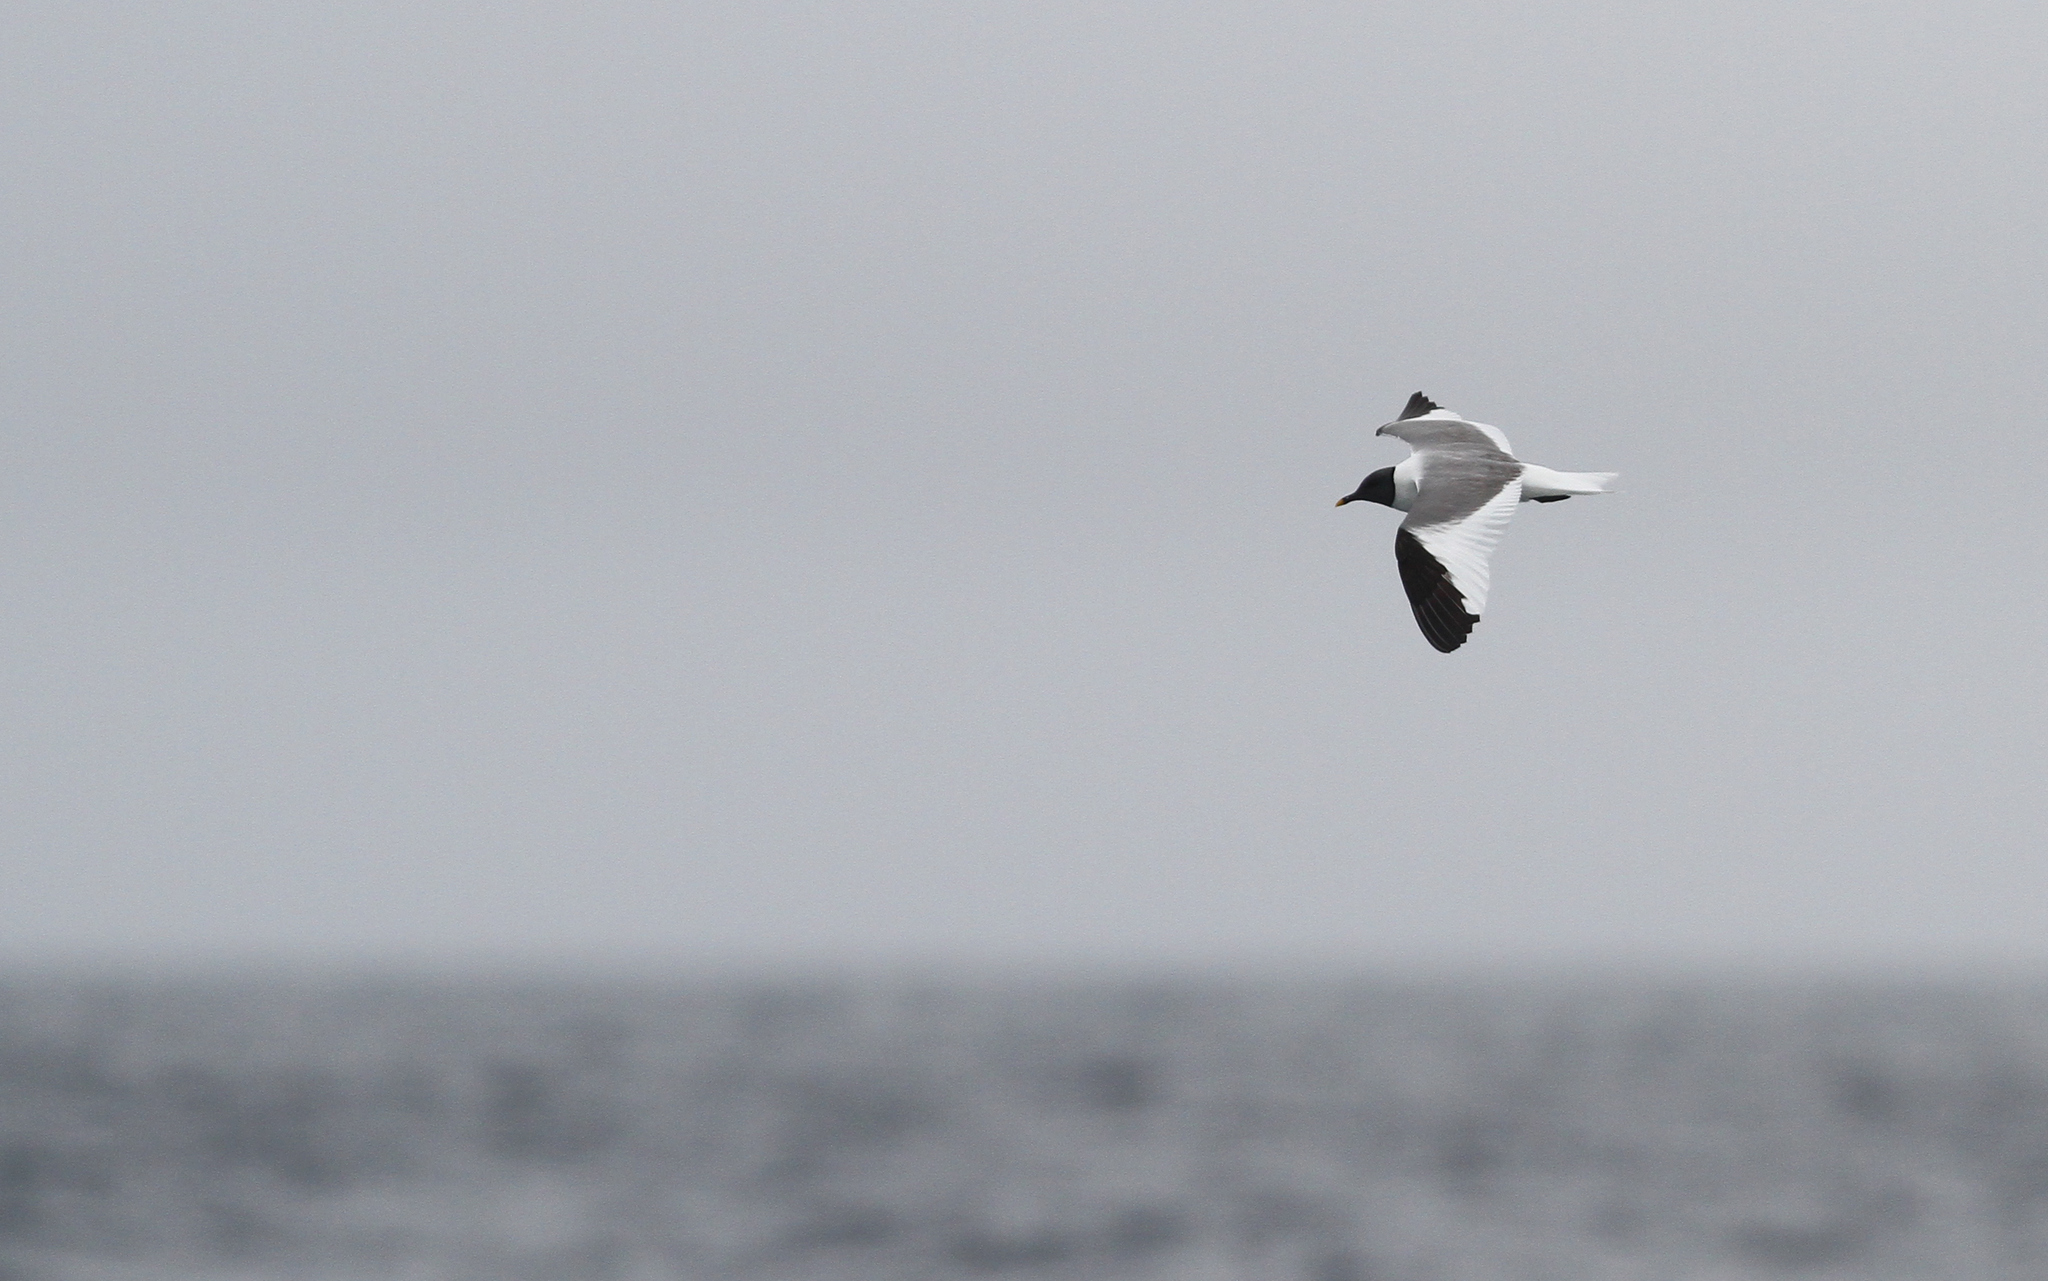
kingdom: Animalia
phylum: Chordata
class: Aves
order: Charadriiformes
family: Laridae
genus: Xema
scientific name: Xema sabini
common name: Sabine's gull
